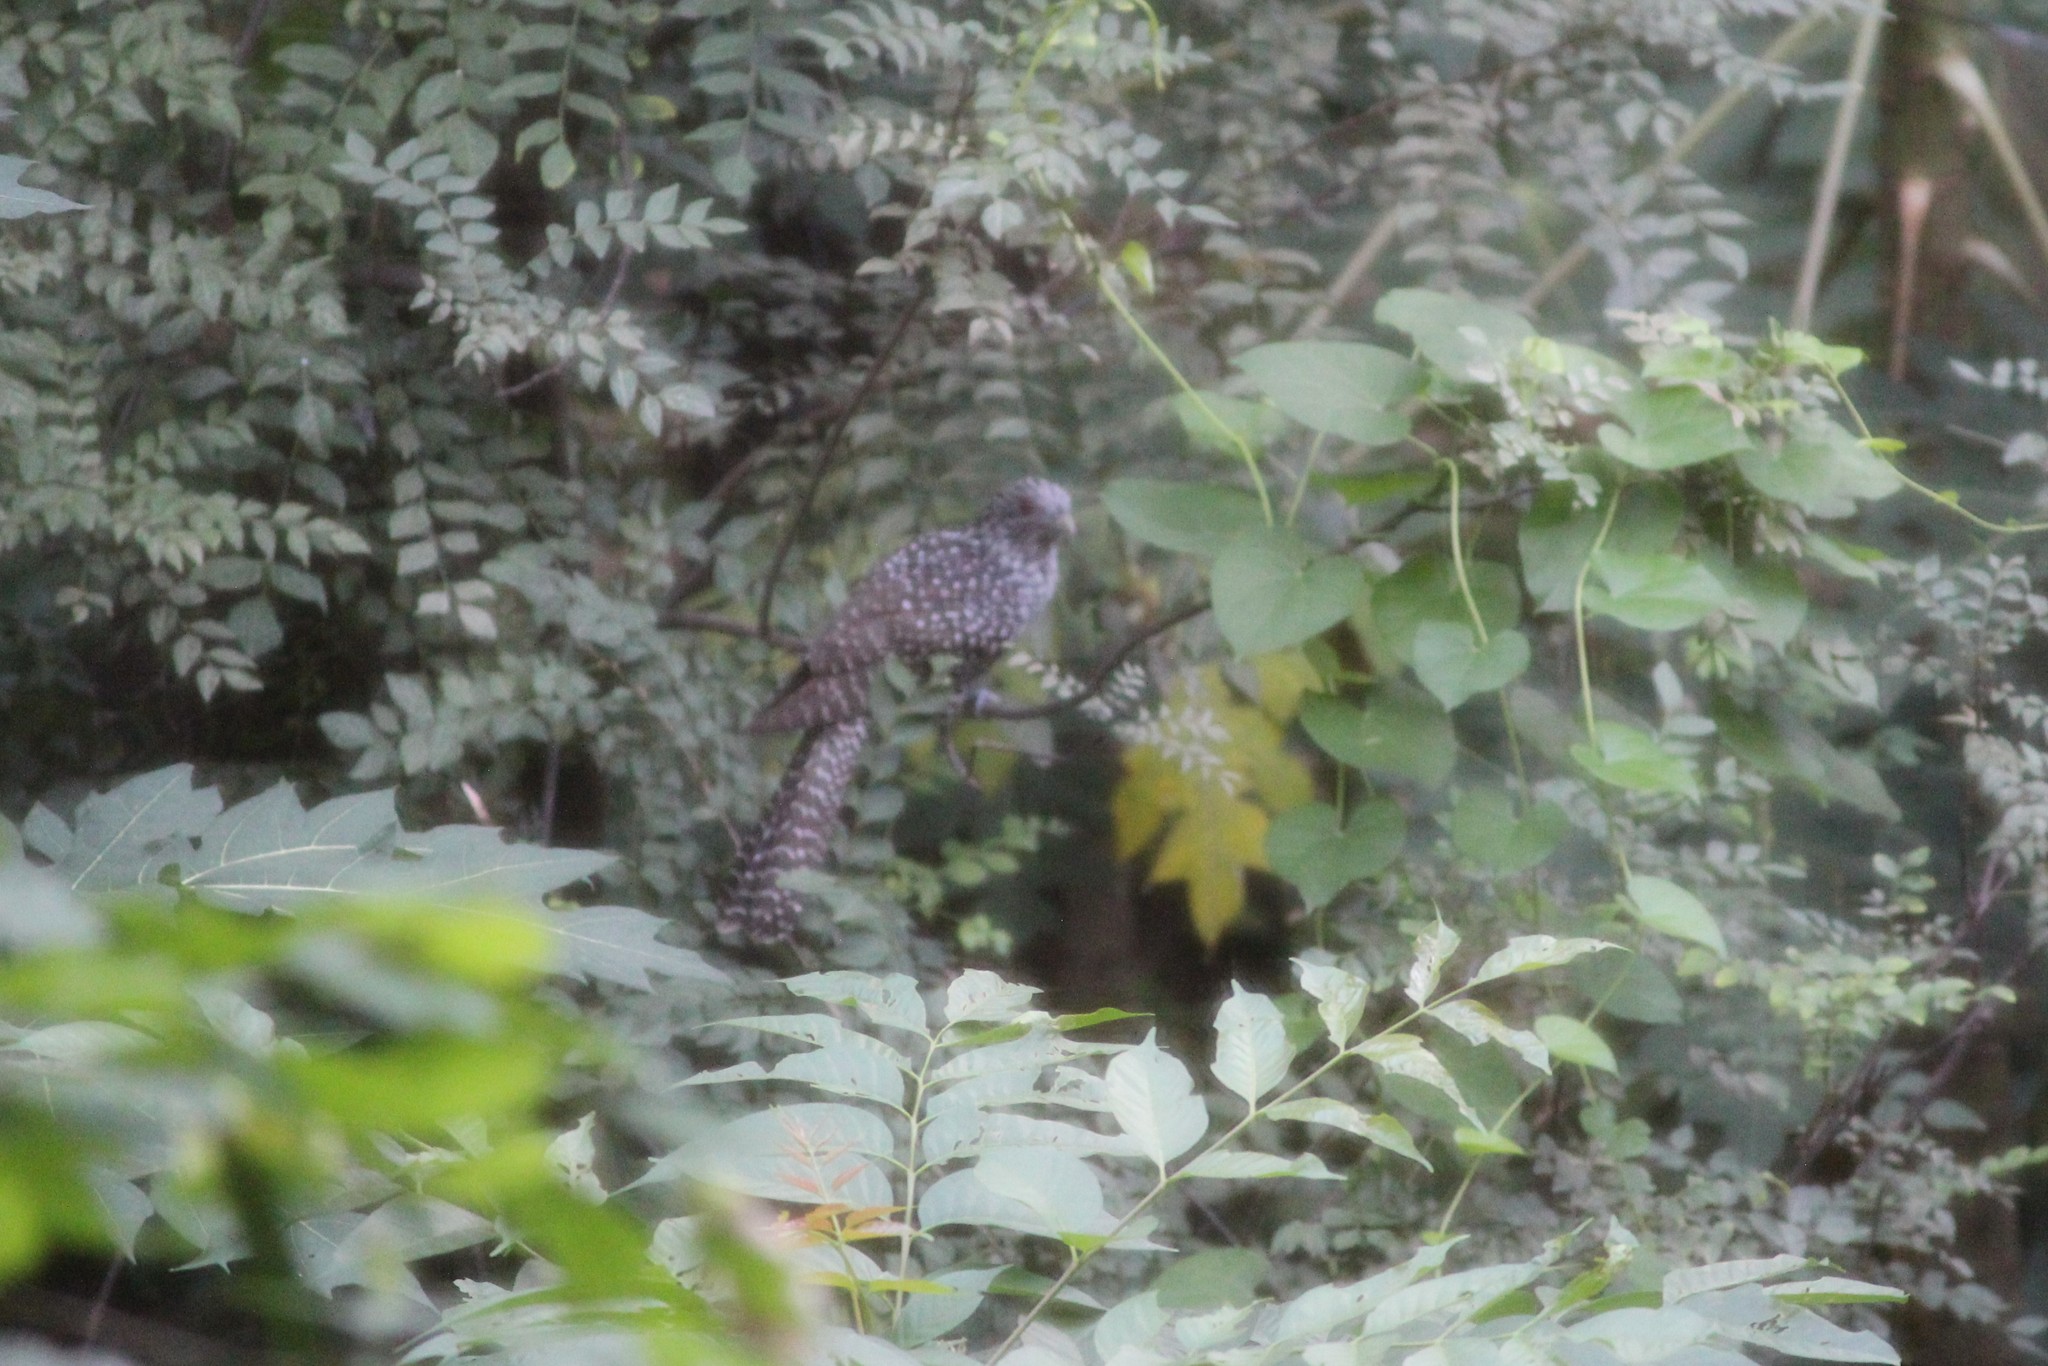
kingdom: Animalia
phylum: Chordata
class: Aves
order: Cuculiformes
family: Cuculidae
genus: Eudynamys
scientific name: Eudynamys scolopaceus
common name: Asian koel
